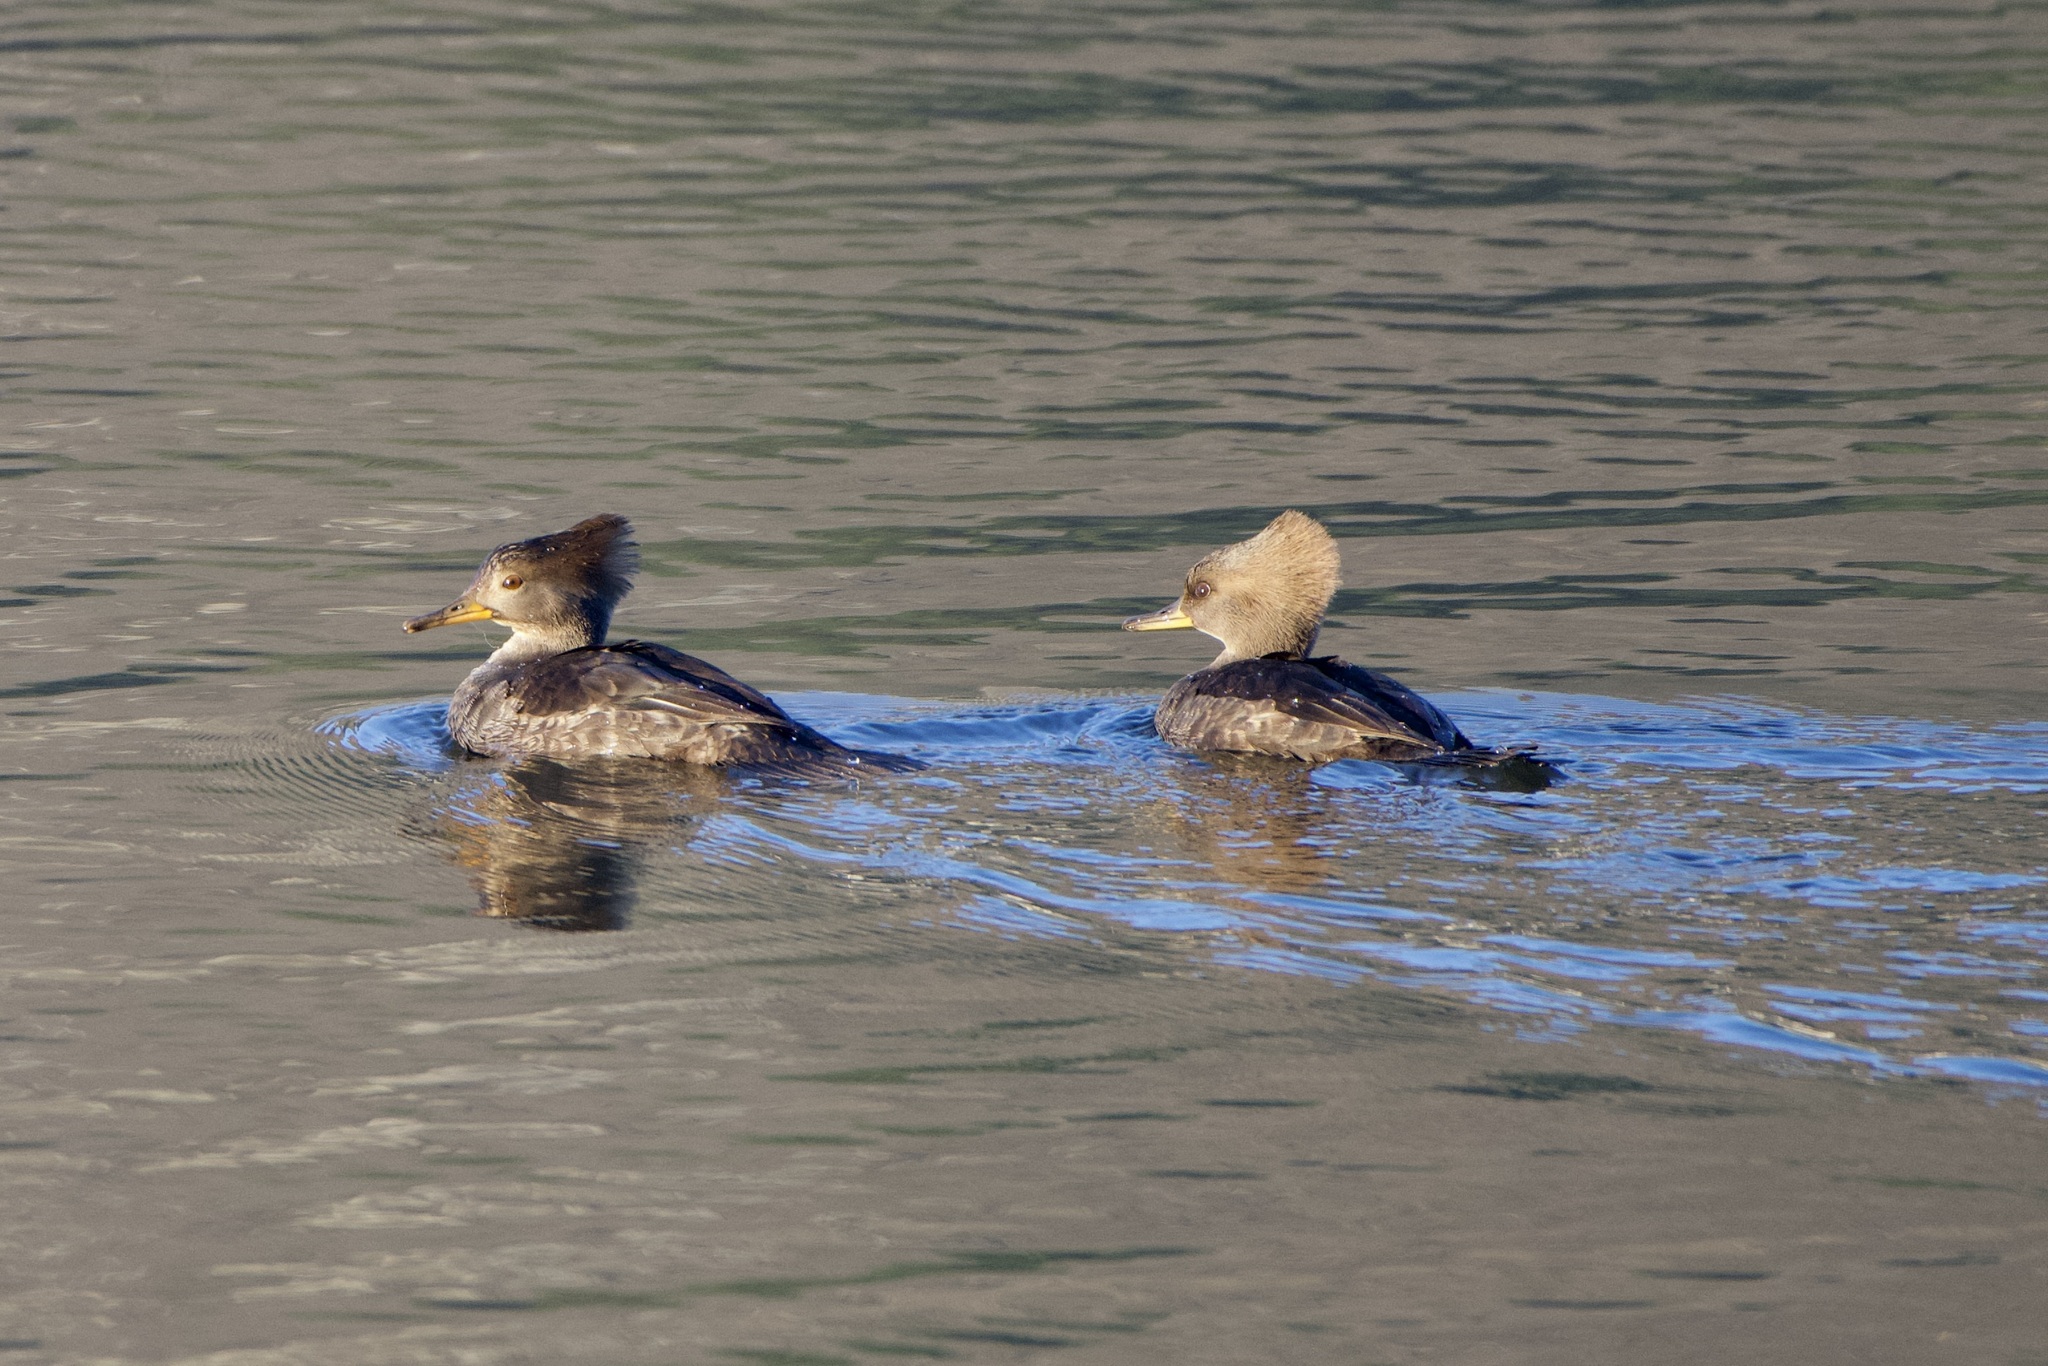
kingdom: Animalia
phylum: Chordata
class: Aves
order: Anseriformes
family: Anatidae
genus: Lophodytes
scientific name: Lophodytes cucullatus
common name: Hooded merganser
